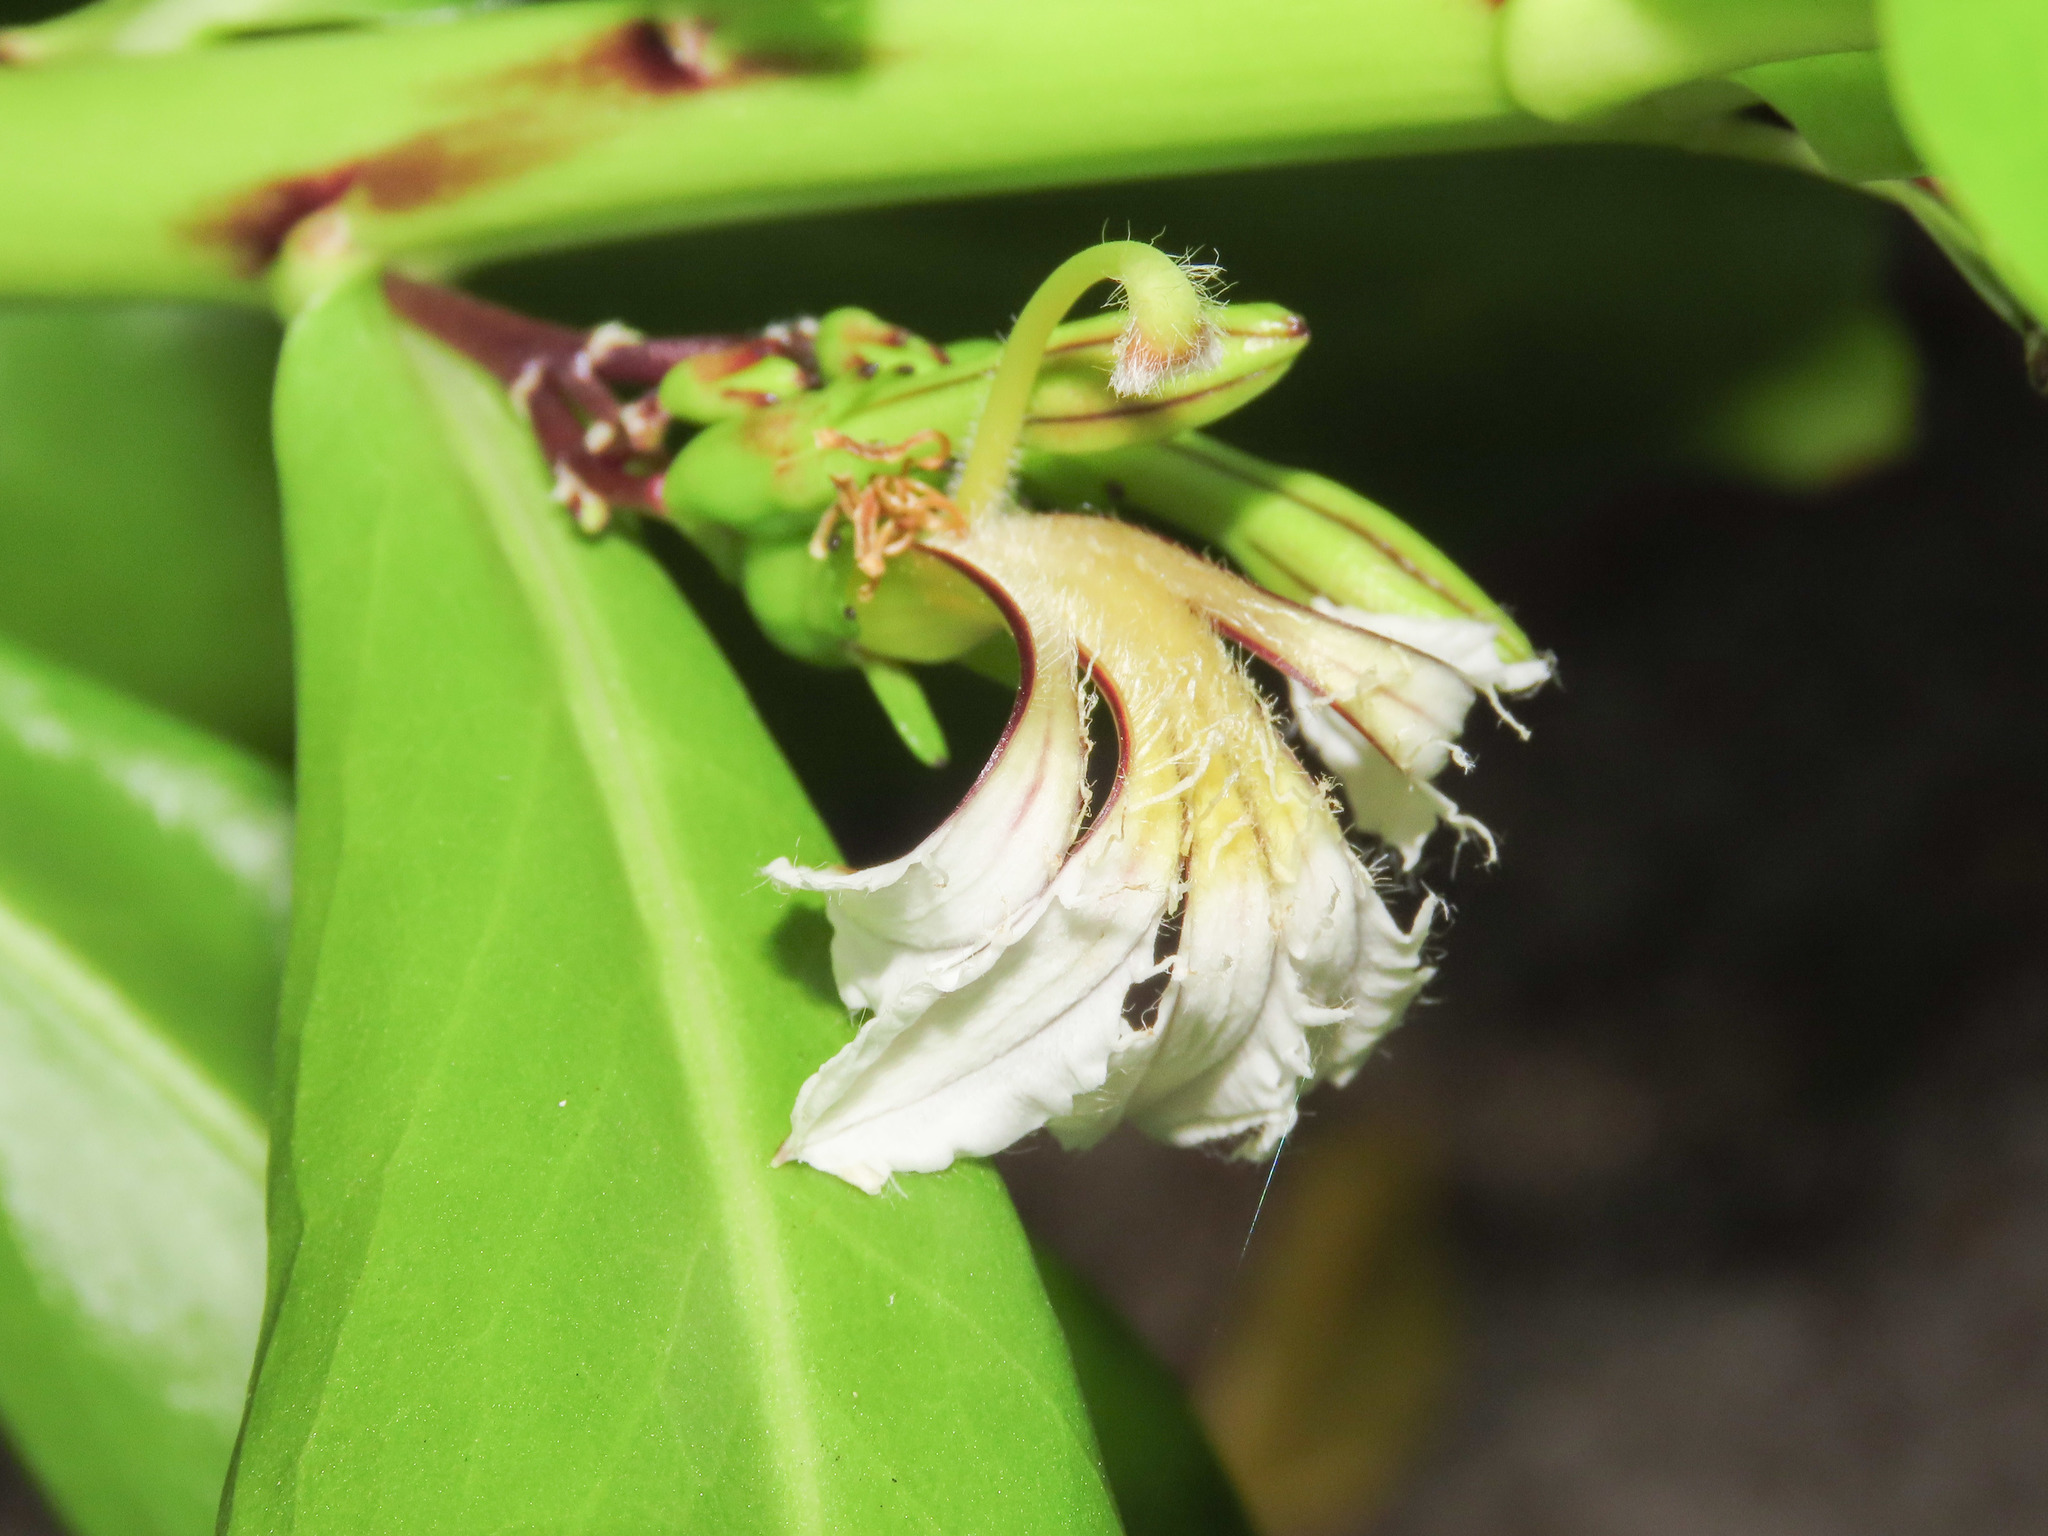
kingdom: Plantae
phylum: Tracheophyta
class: Magnoliopsida
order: Asterales
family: Goodeniaceae
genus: Scaevola
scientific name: Scaevola taccada
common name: Sea lettucetree
